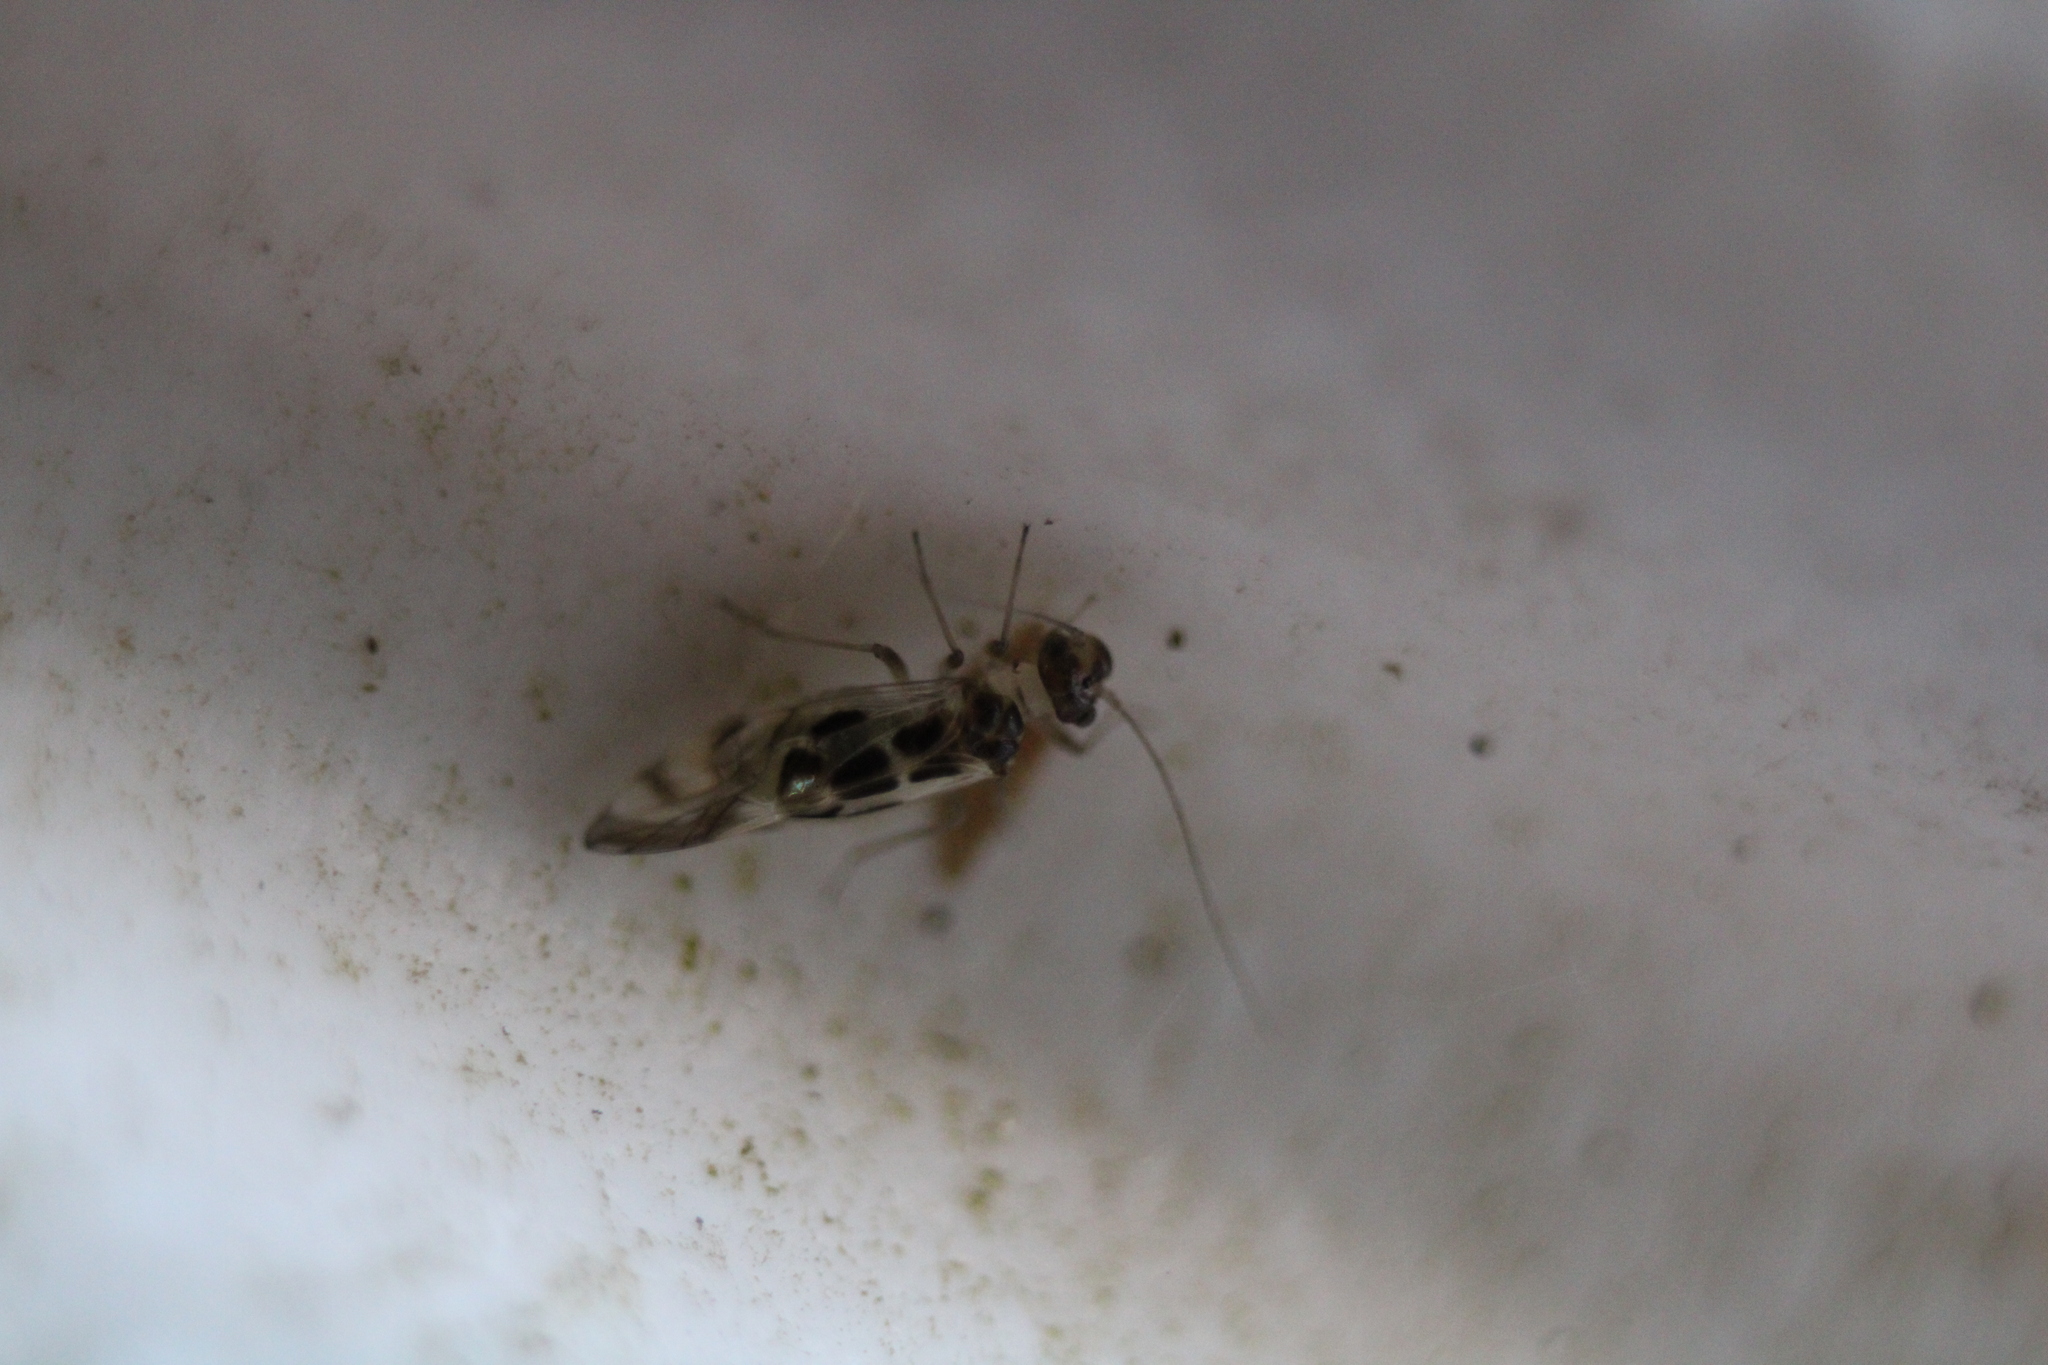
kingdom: Animalia
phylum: Arthropoda
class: Insecta
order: Psocodea
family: Stenopsocidae
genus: Graphopsocus
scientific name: Graphopsocus cruciatus
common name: Lizard bark louse
